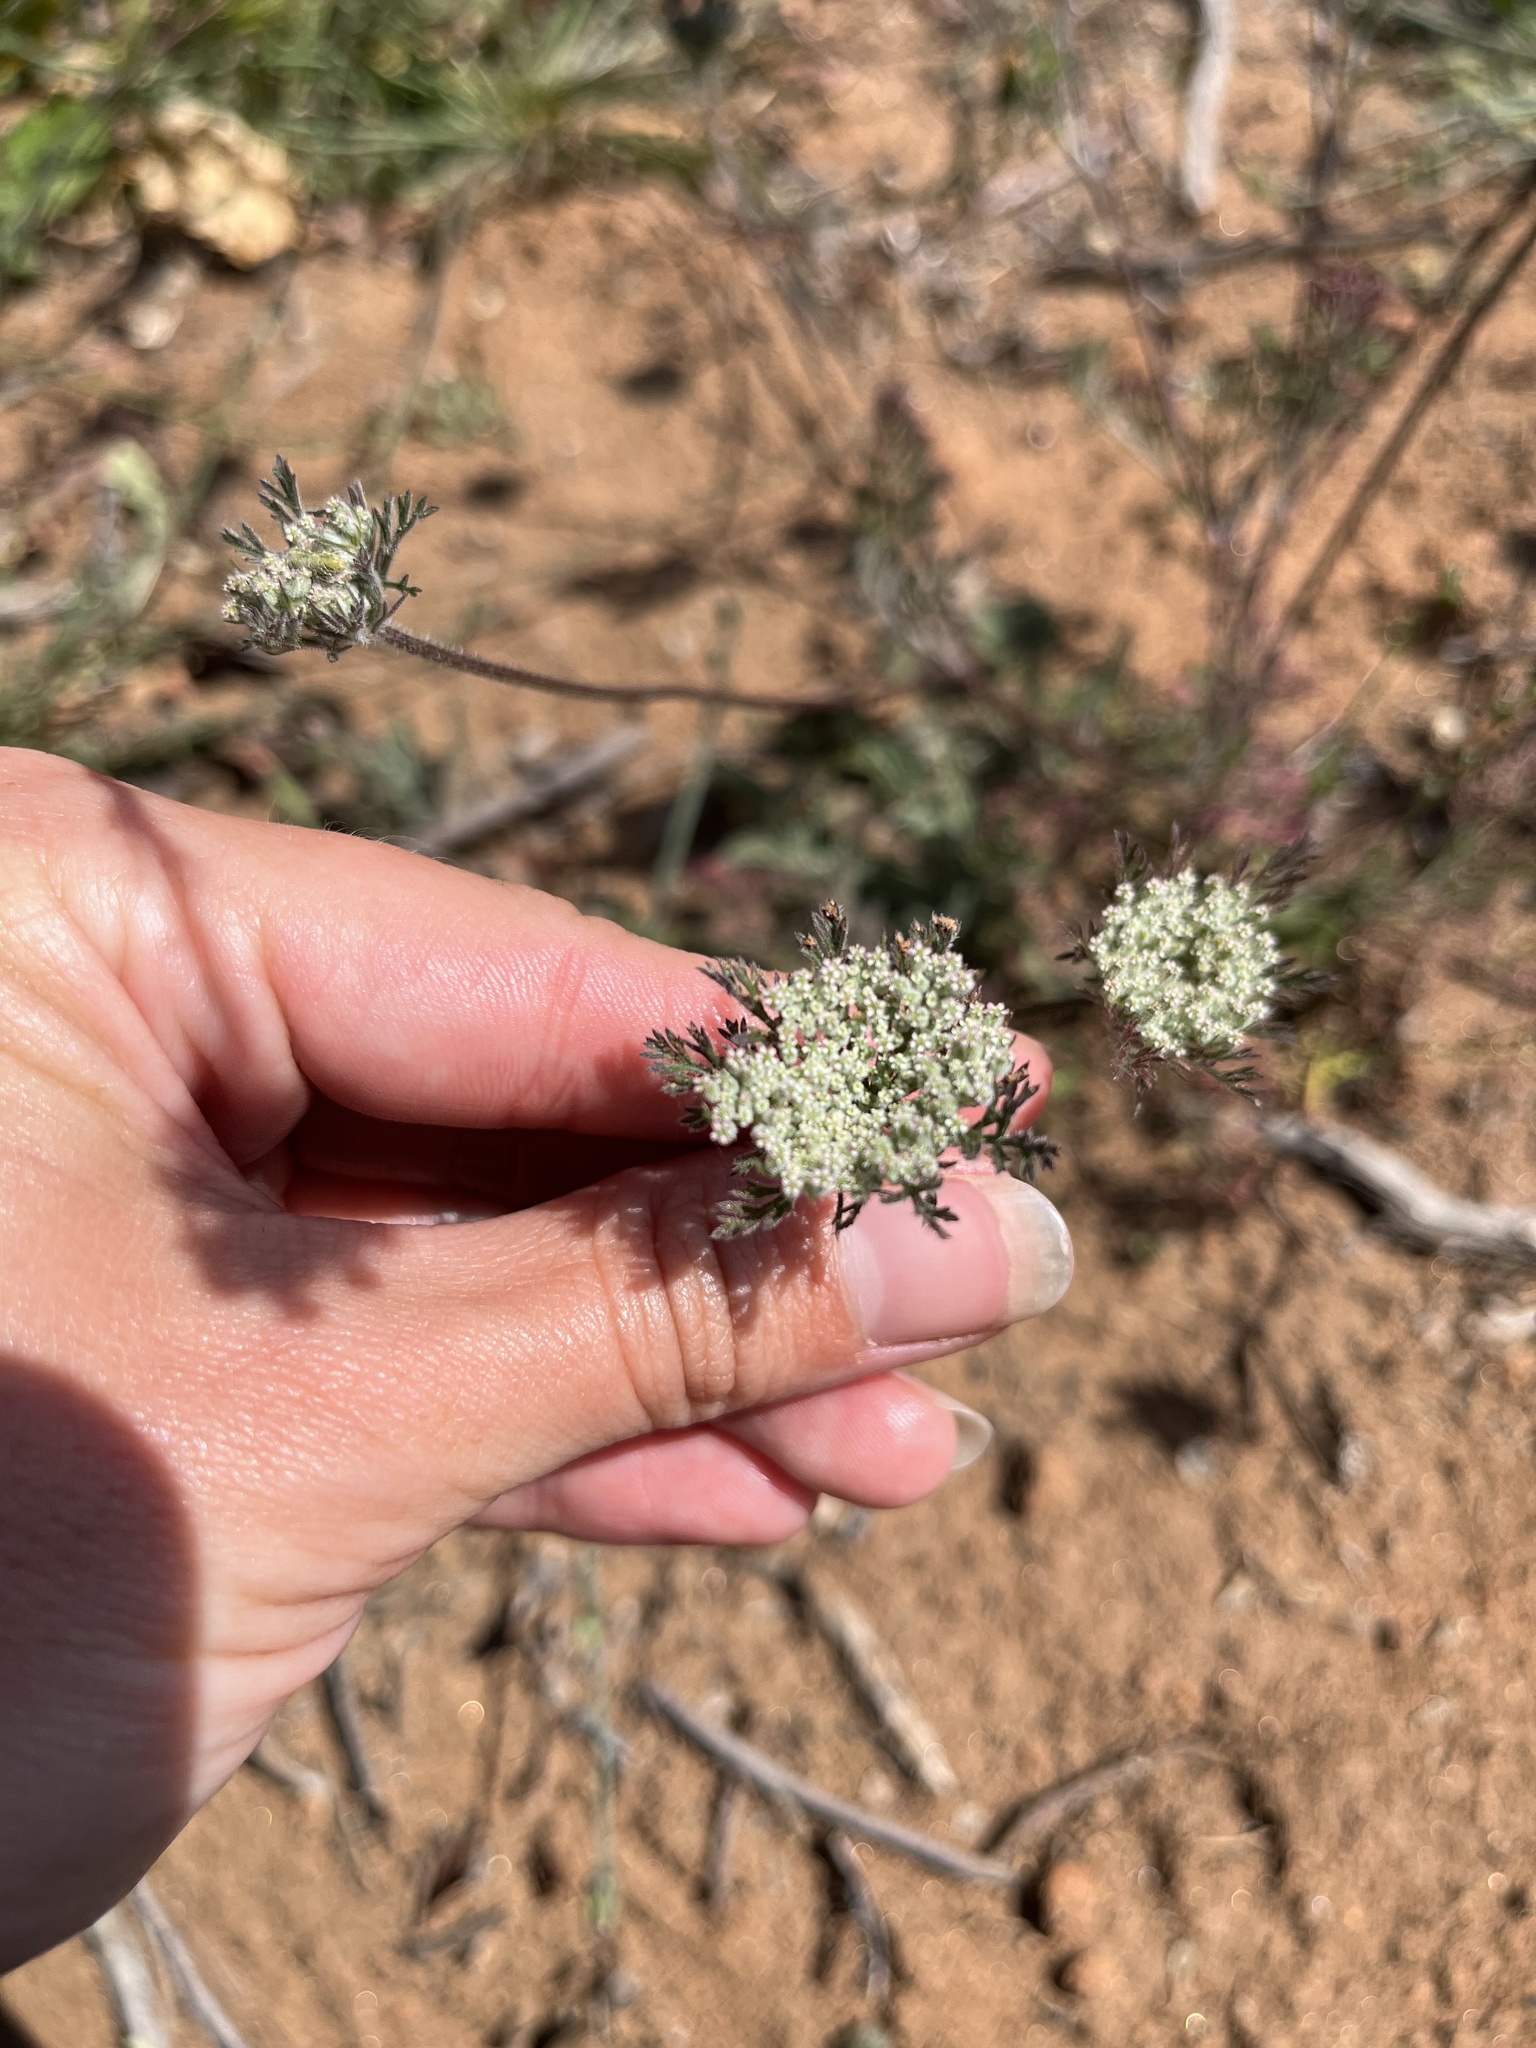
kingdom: Plantae
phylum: Tracheophyta
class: Magnoliopsida
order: Apiales
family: Apiaceae
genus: Daucus
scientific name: Daucus pusillus
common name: Southwest wild carrot
